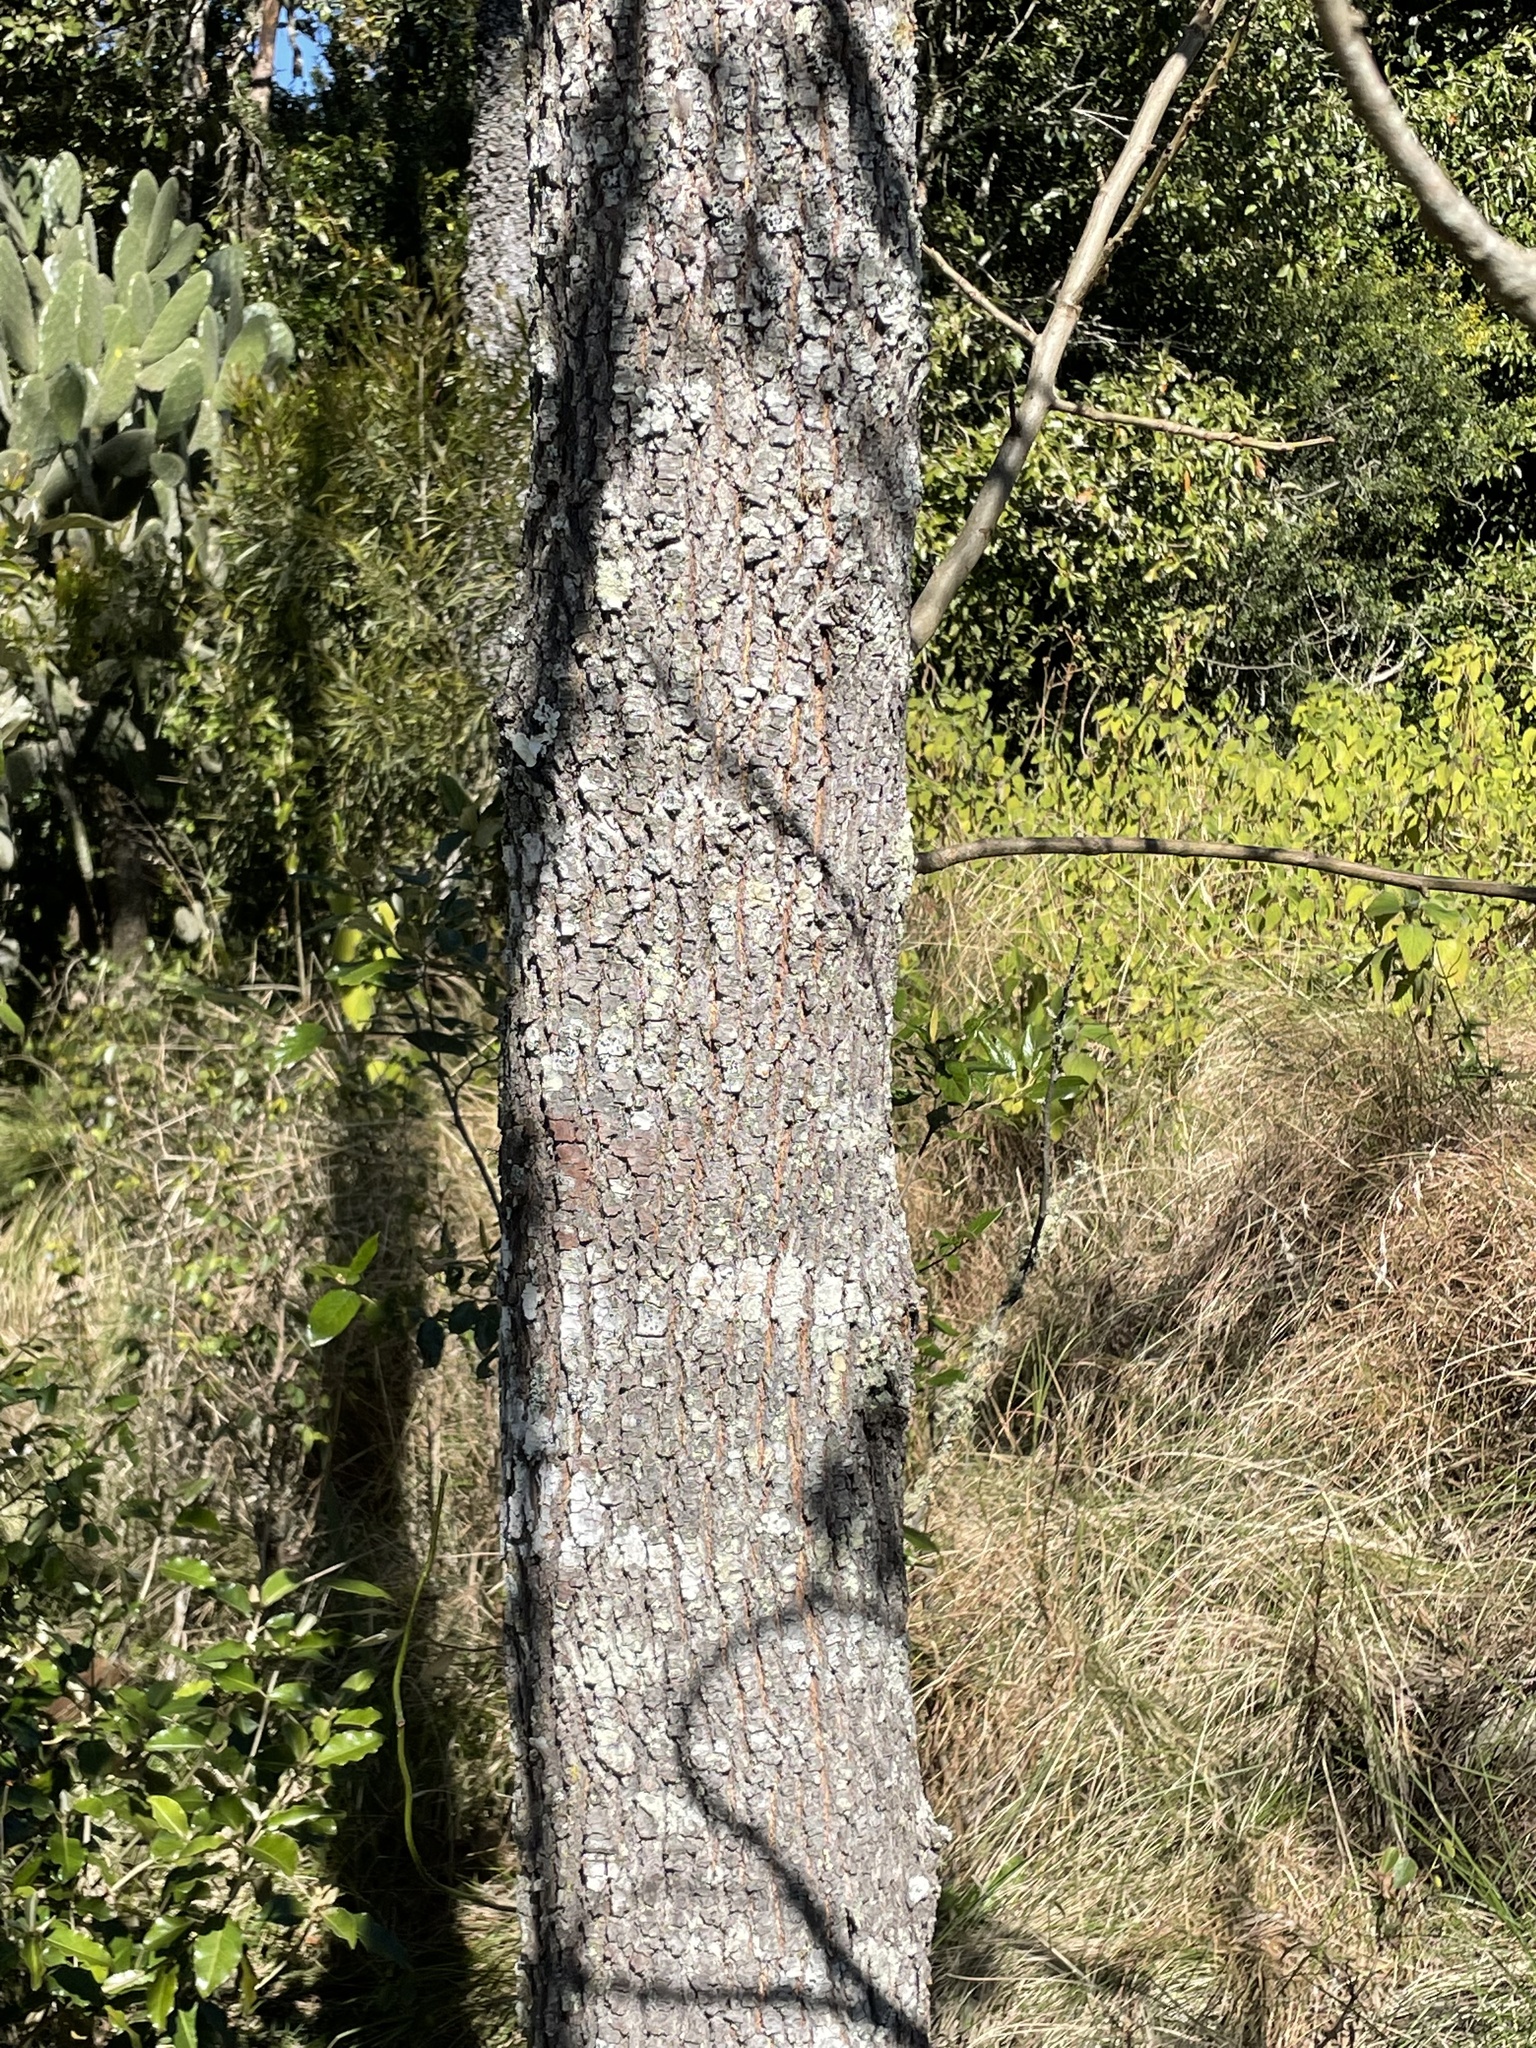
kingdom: Plantae
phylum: Tracheophyta
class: Magnoliopsida
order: Proteales
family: Proteaceae
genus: Grevillea
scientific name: Grevillea robusta
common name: Silkoak
